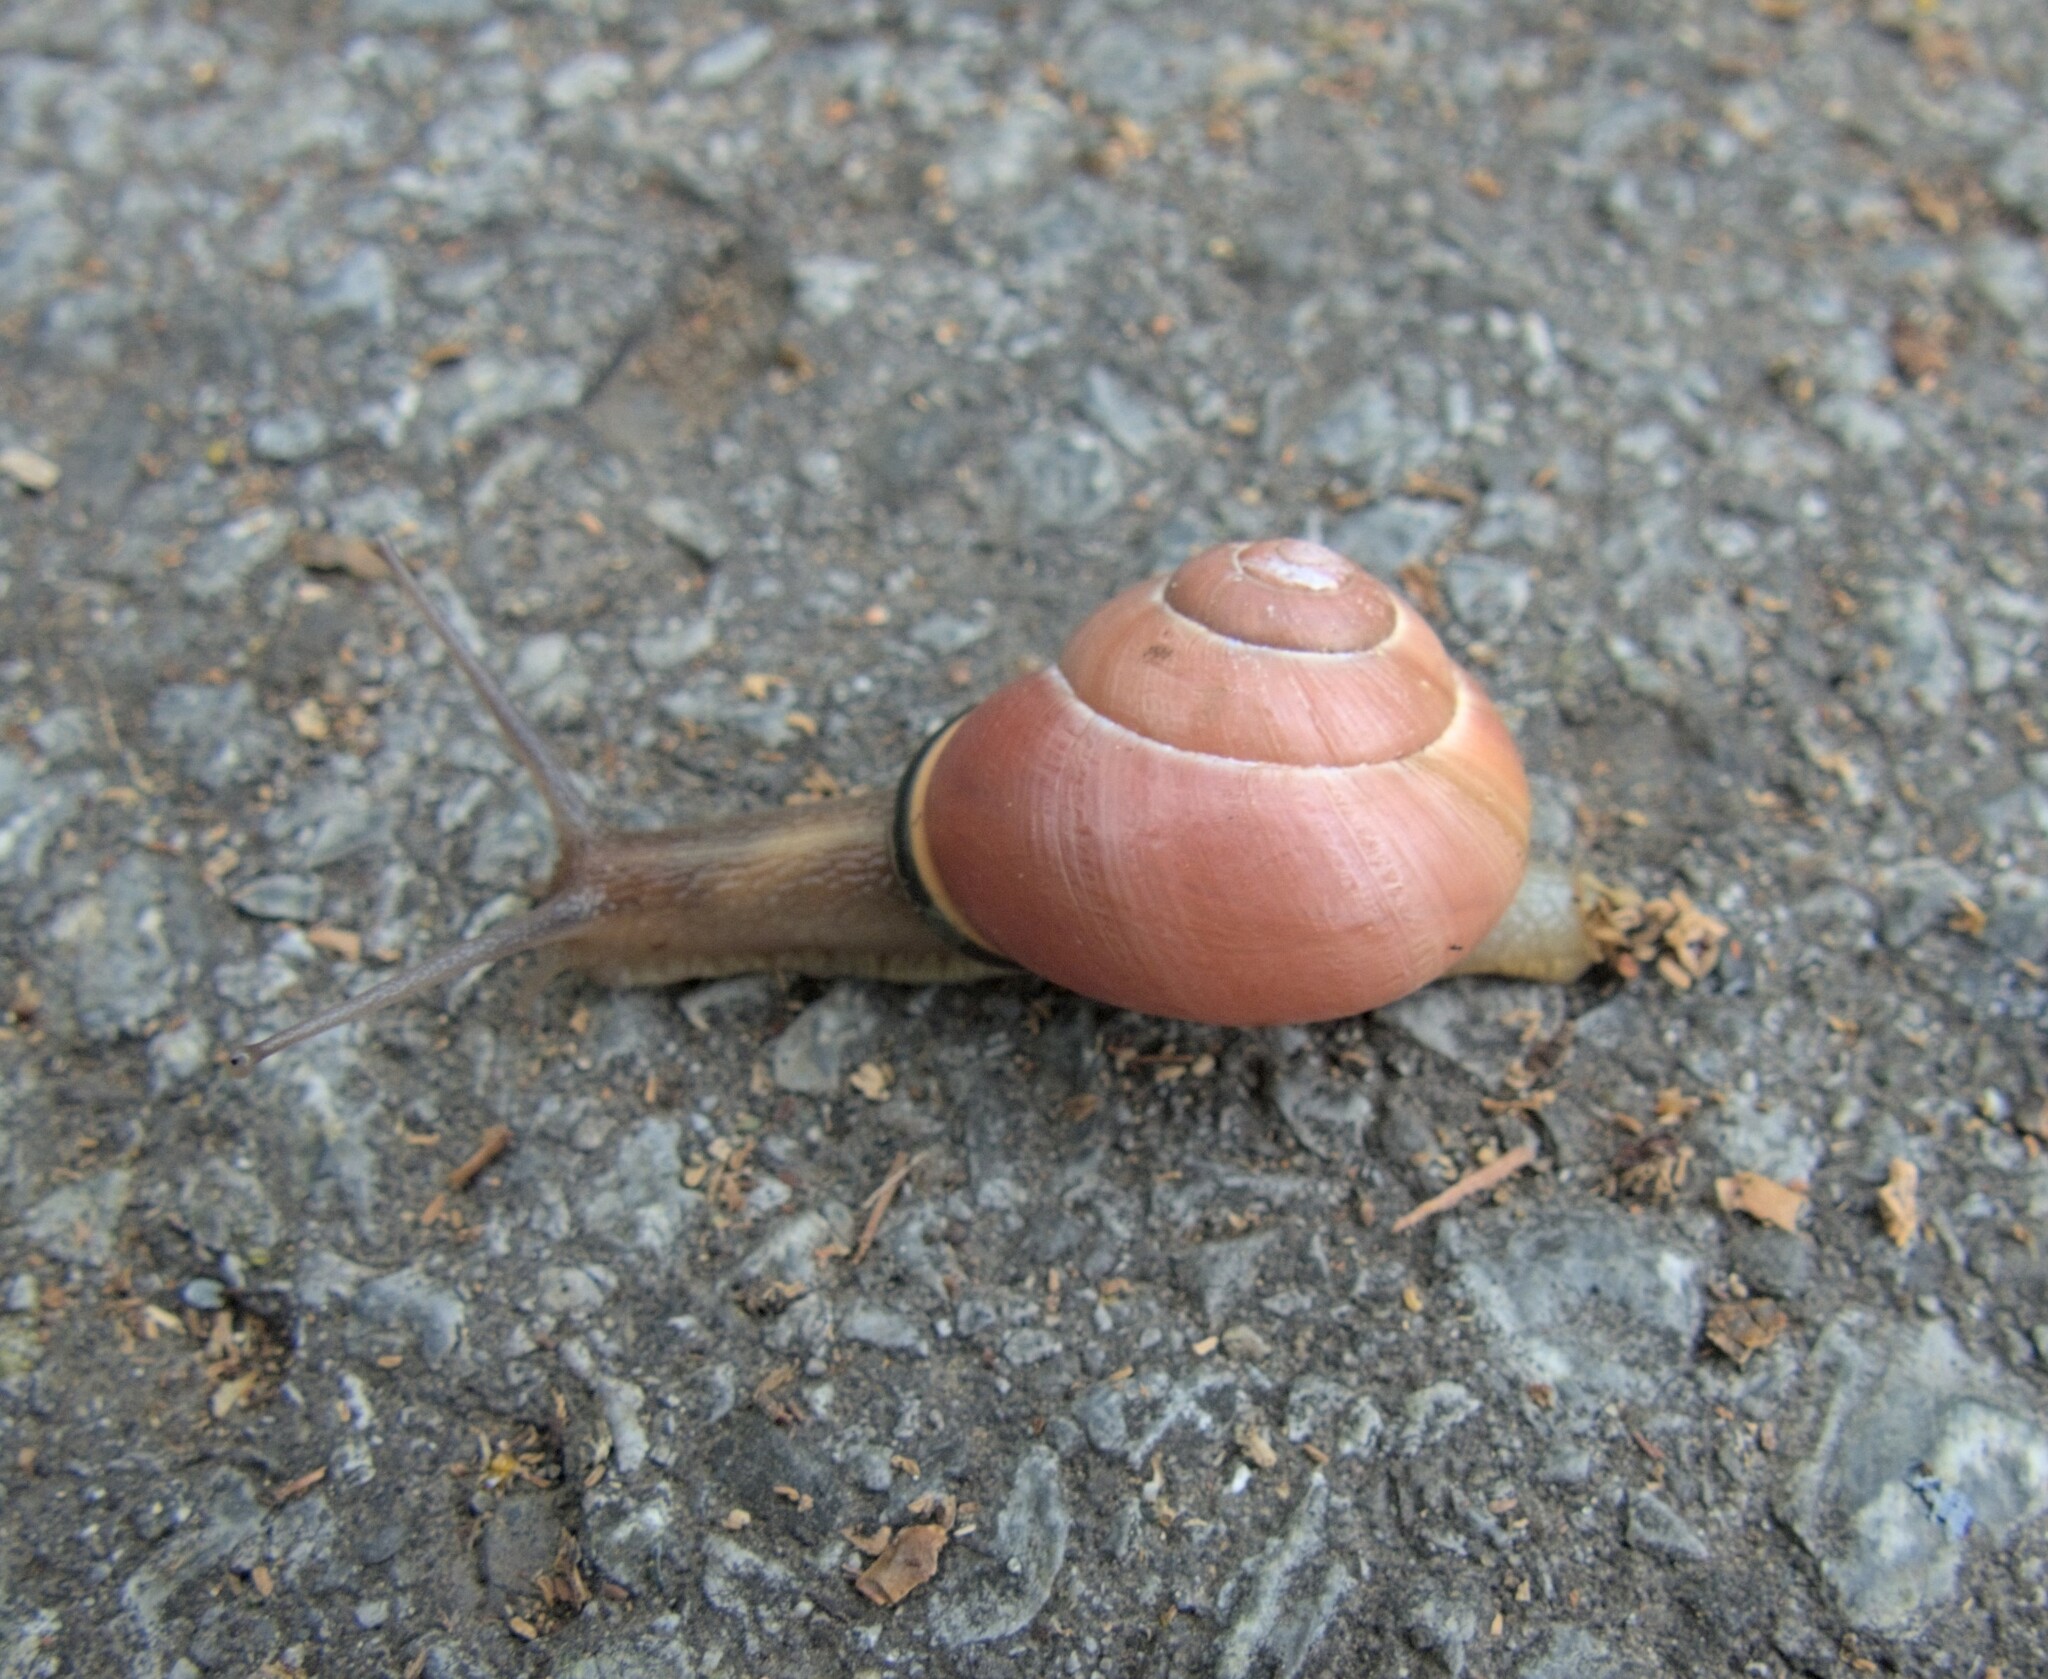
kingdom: Animalia
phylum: Mollusca
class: Gastropoda
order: Stylommatophora
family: Helicidae
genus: Cepaea
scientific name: Cepaea nemoralis
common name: Grovesnail
